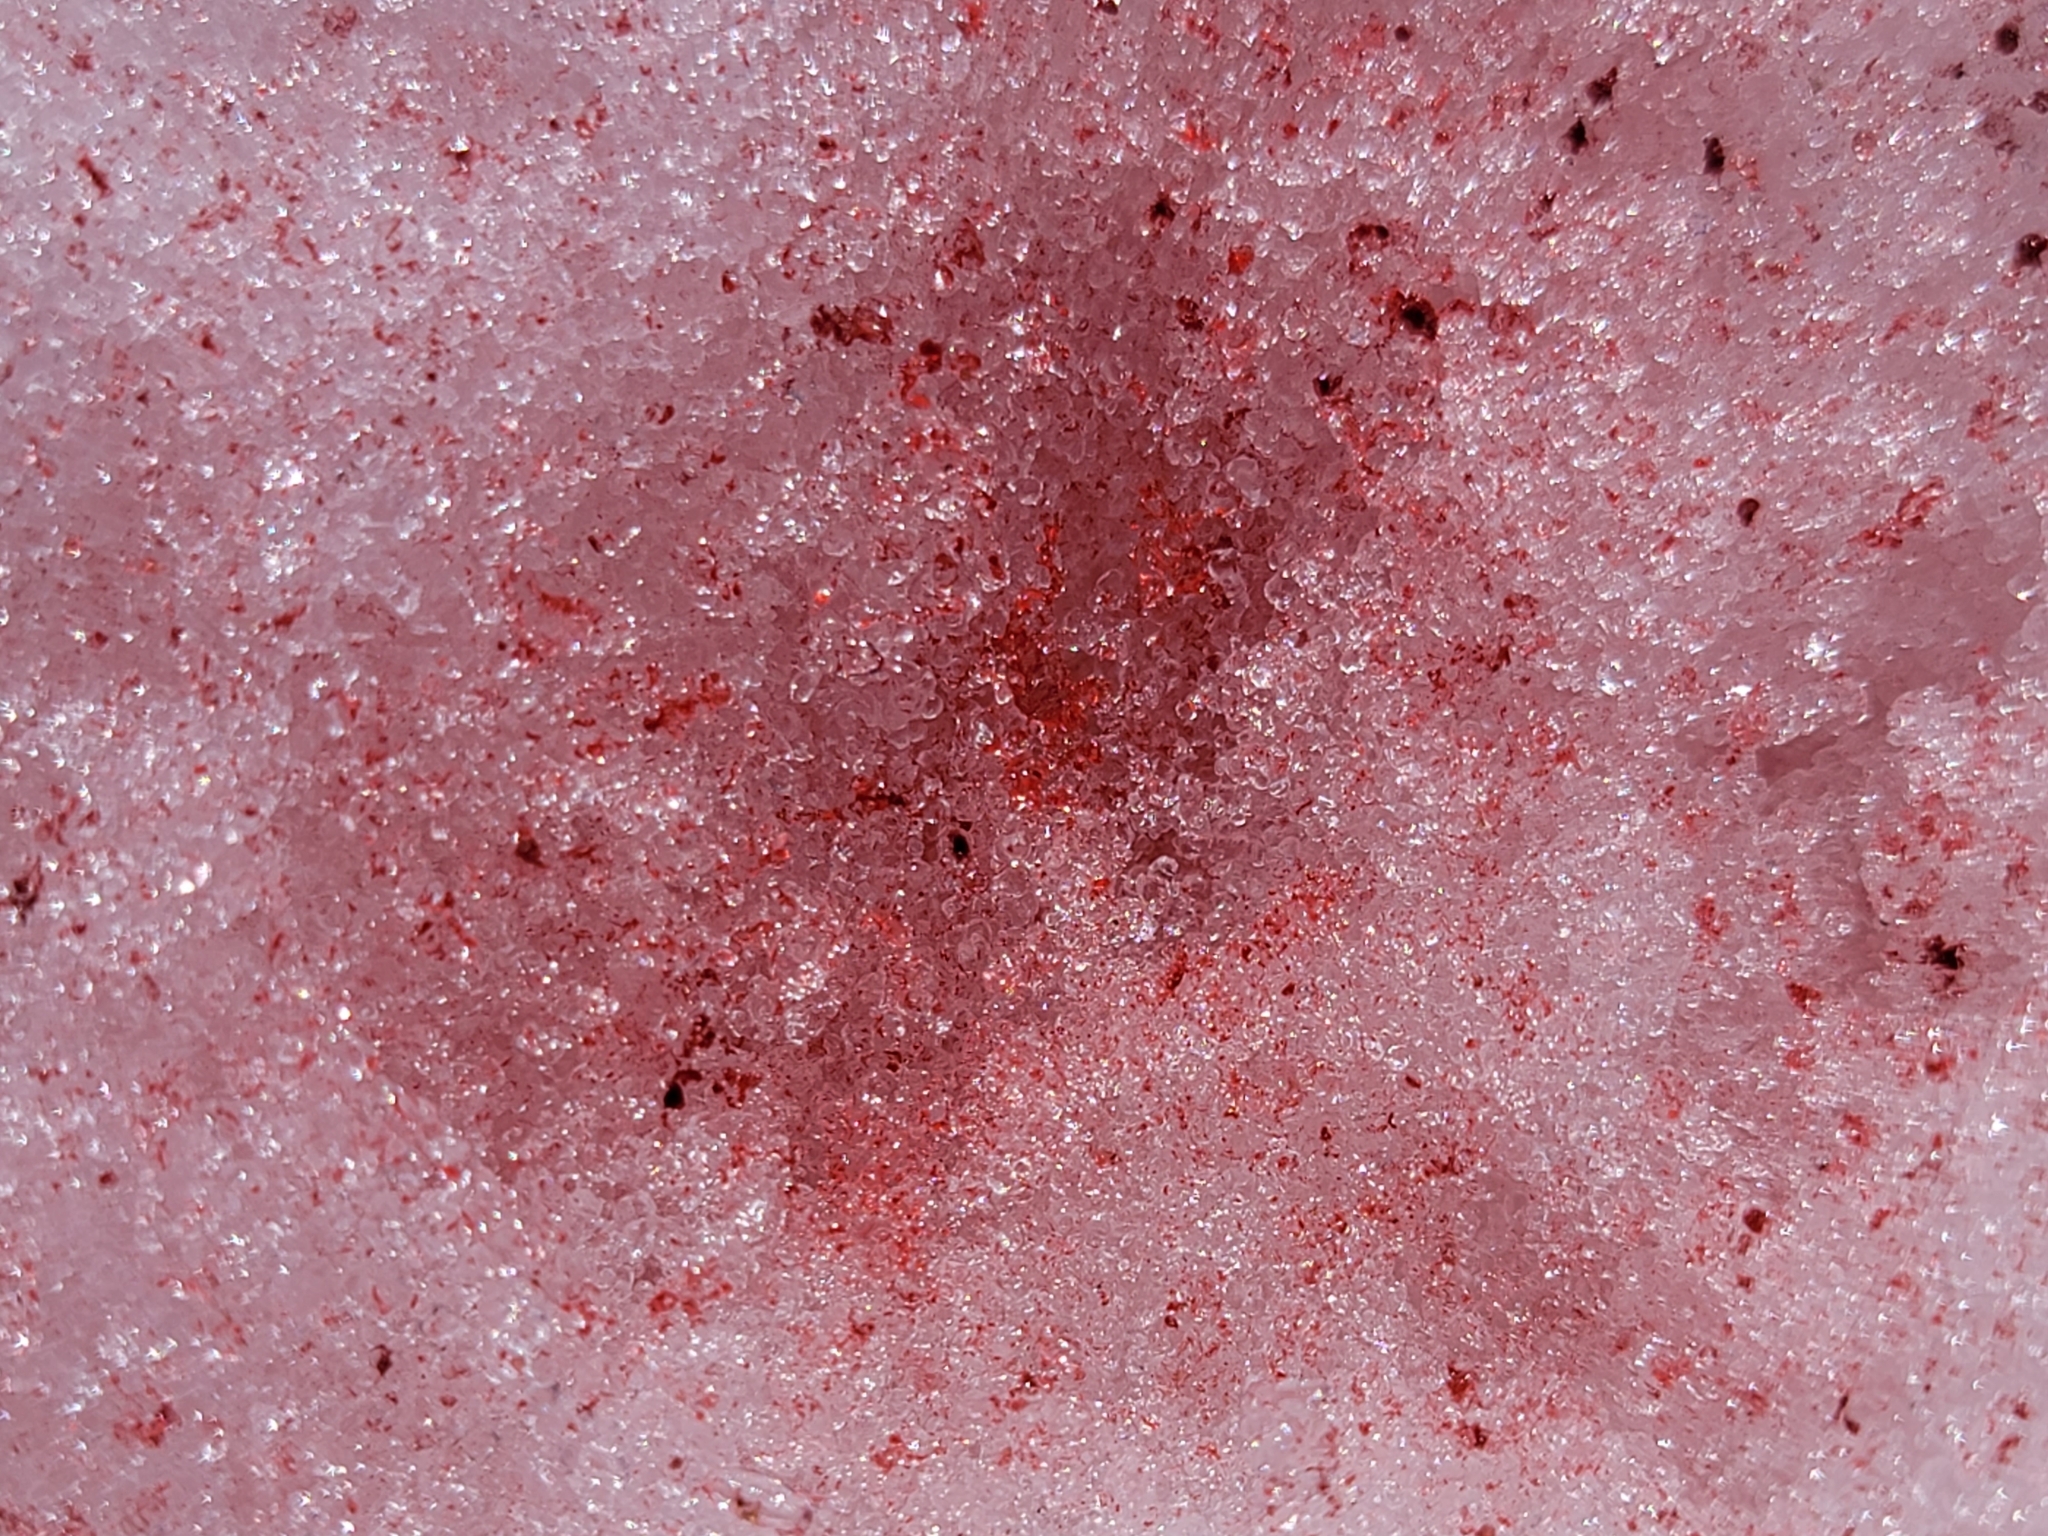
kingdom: Plantae
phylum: Chlorophyta
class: Chlorophyceae
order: Volvocales
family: Chlamydomonadaceae
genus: Chlamydomonas
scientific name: Chlamydomonas nivalis
